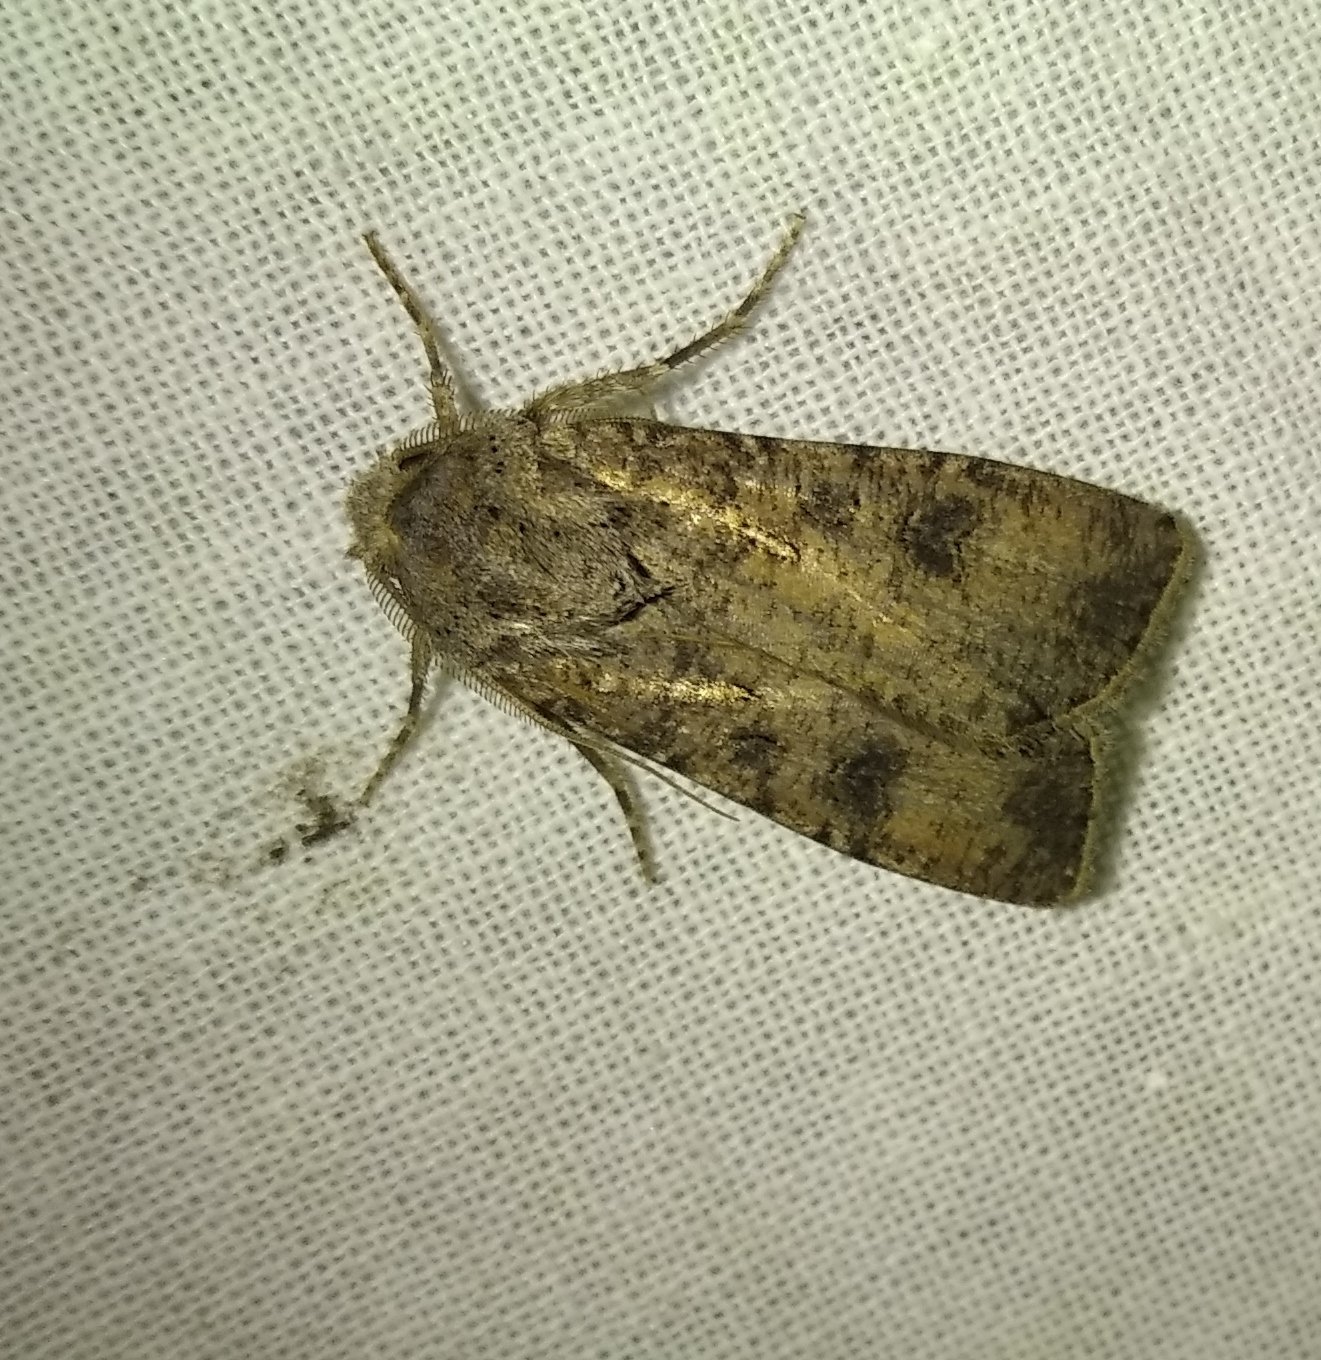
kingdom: Animalia
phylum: Arthropoda
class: Insecta
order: Lepidoptera
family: Noctuidae
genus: Agrotis
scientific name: Agrotis segetum
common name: Turnip moth
